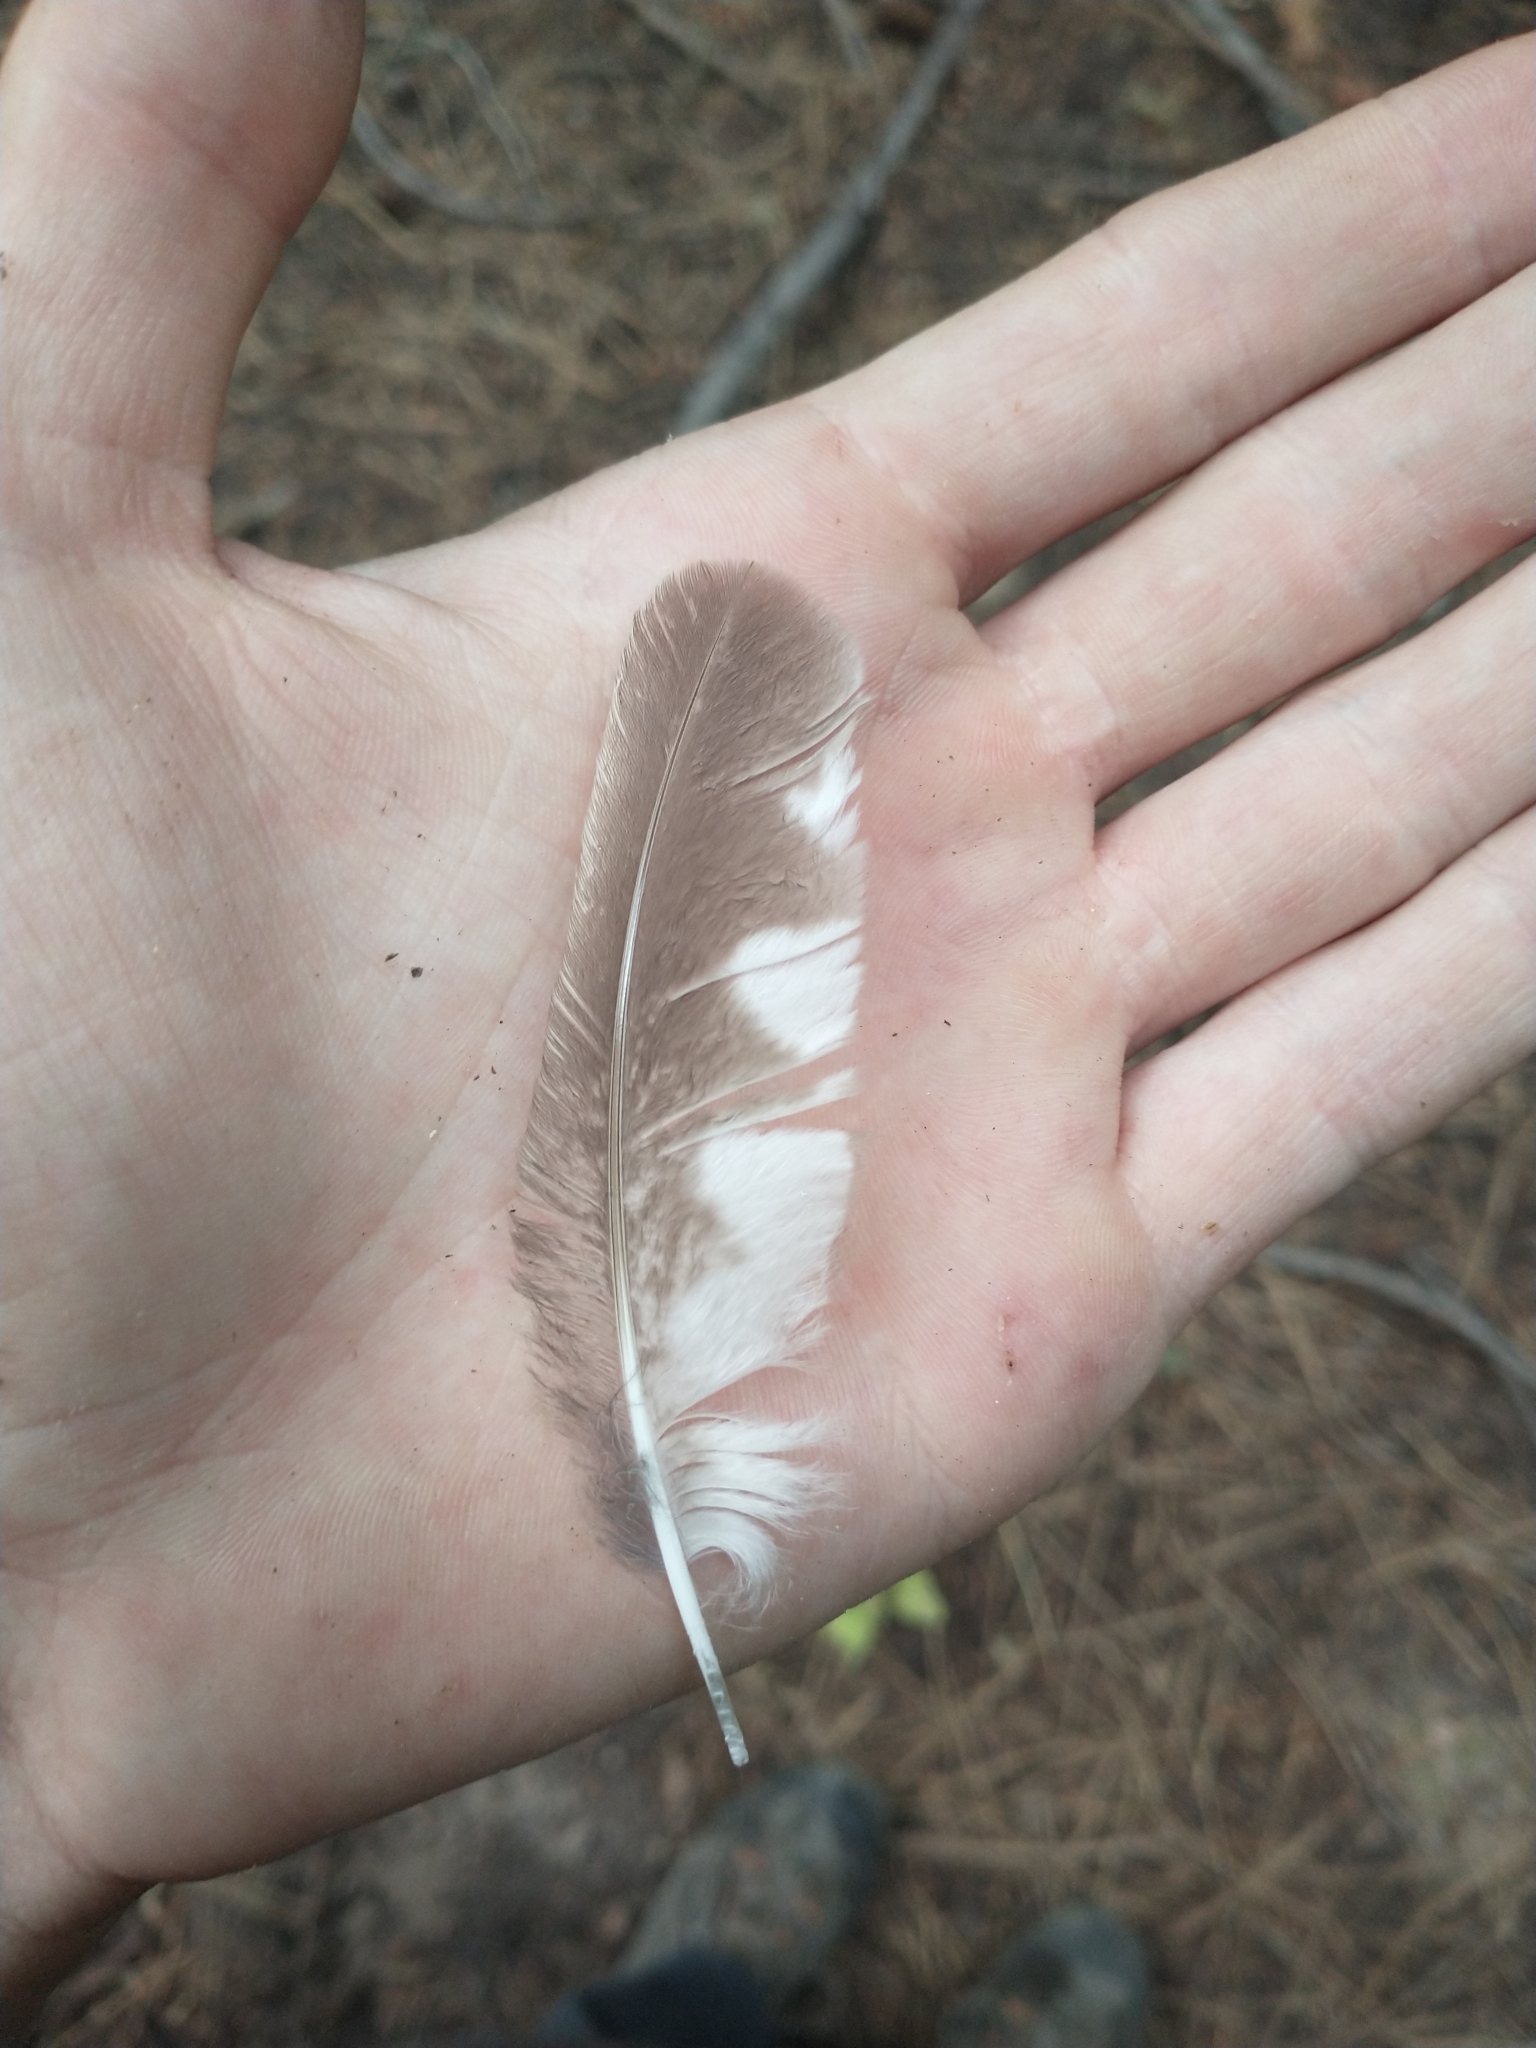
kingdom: Animalia
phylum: Chordata
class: Aves
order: Strigiformes
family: Strigidae
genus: Aegolius
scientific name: Aegolius acadicus
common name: Northern saw-whet owl
